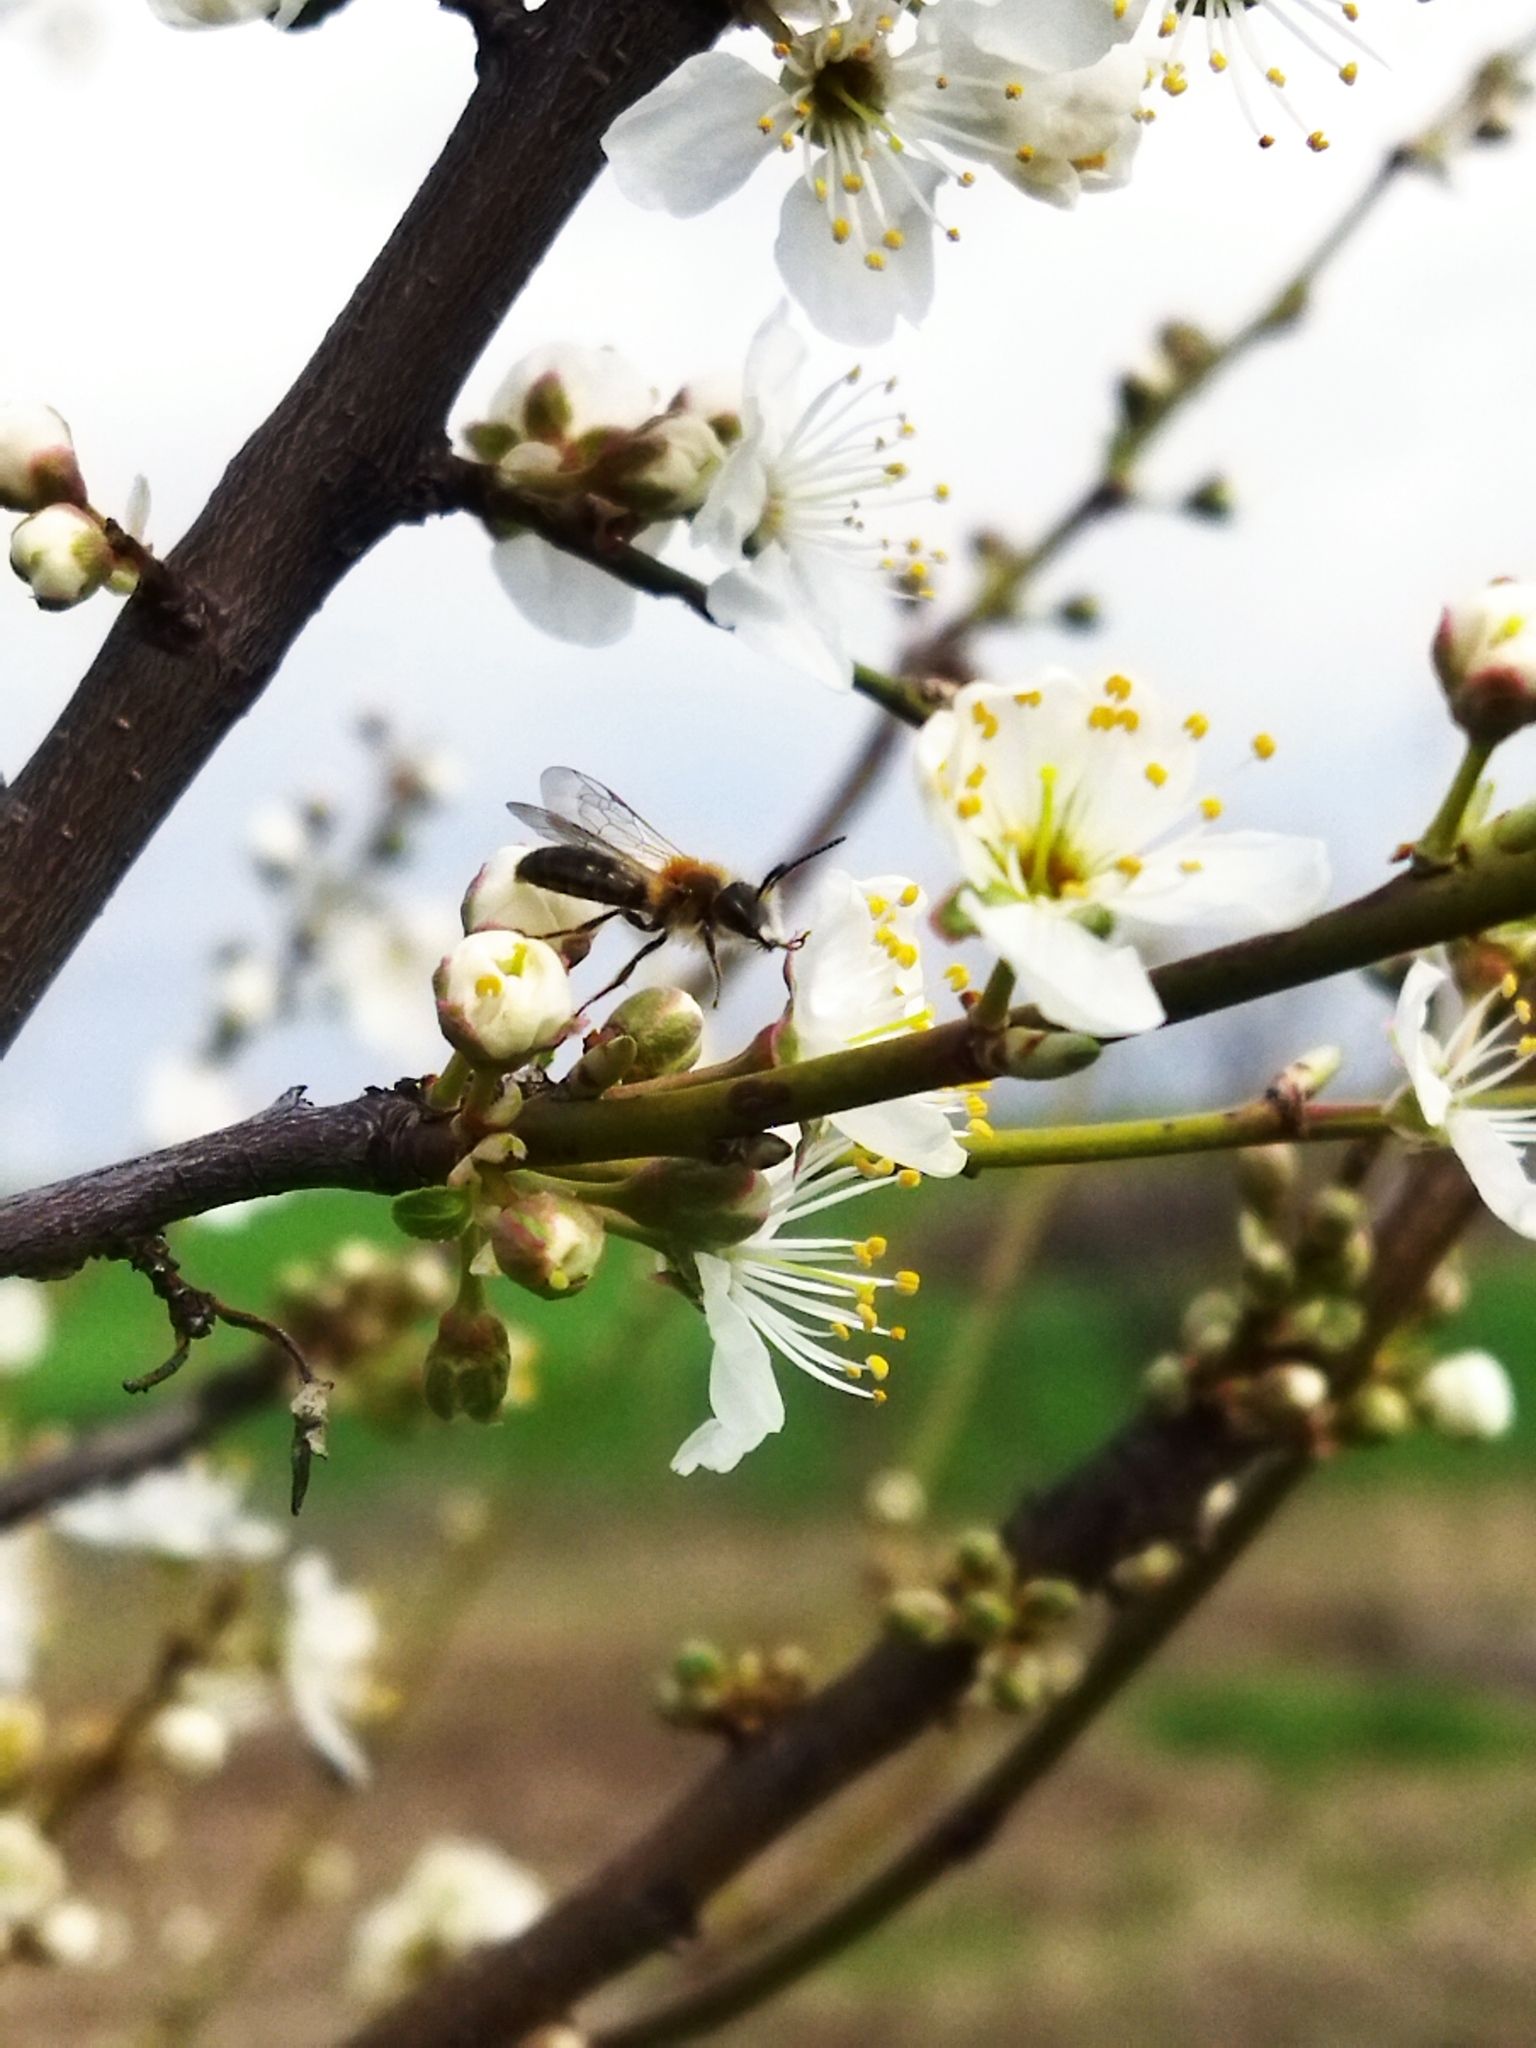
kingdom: Animalia
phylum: Arthropoda
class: Insecta
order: Hymenoptera
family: Andrenidae
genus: Andrena
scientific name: Andrena
